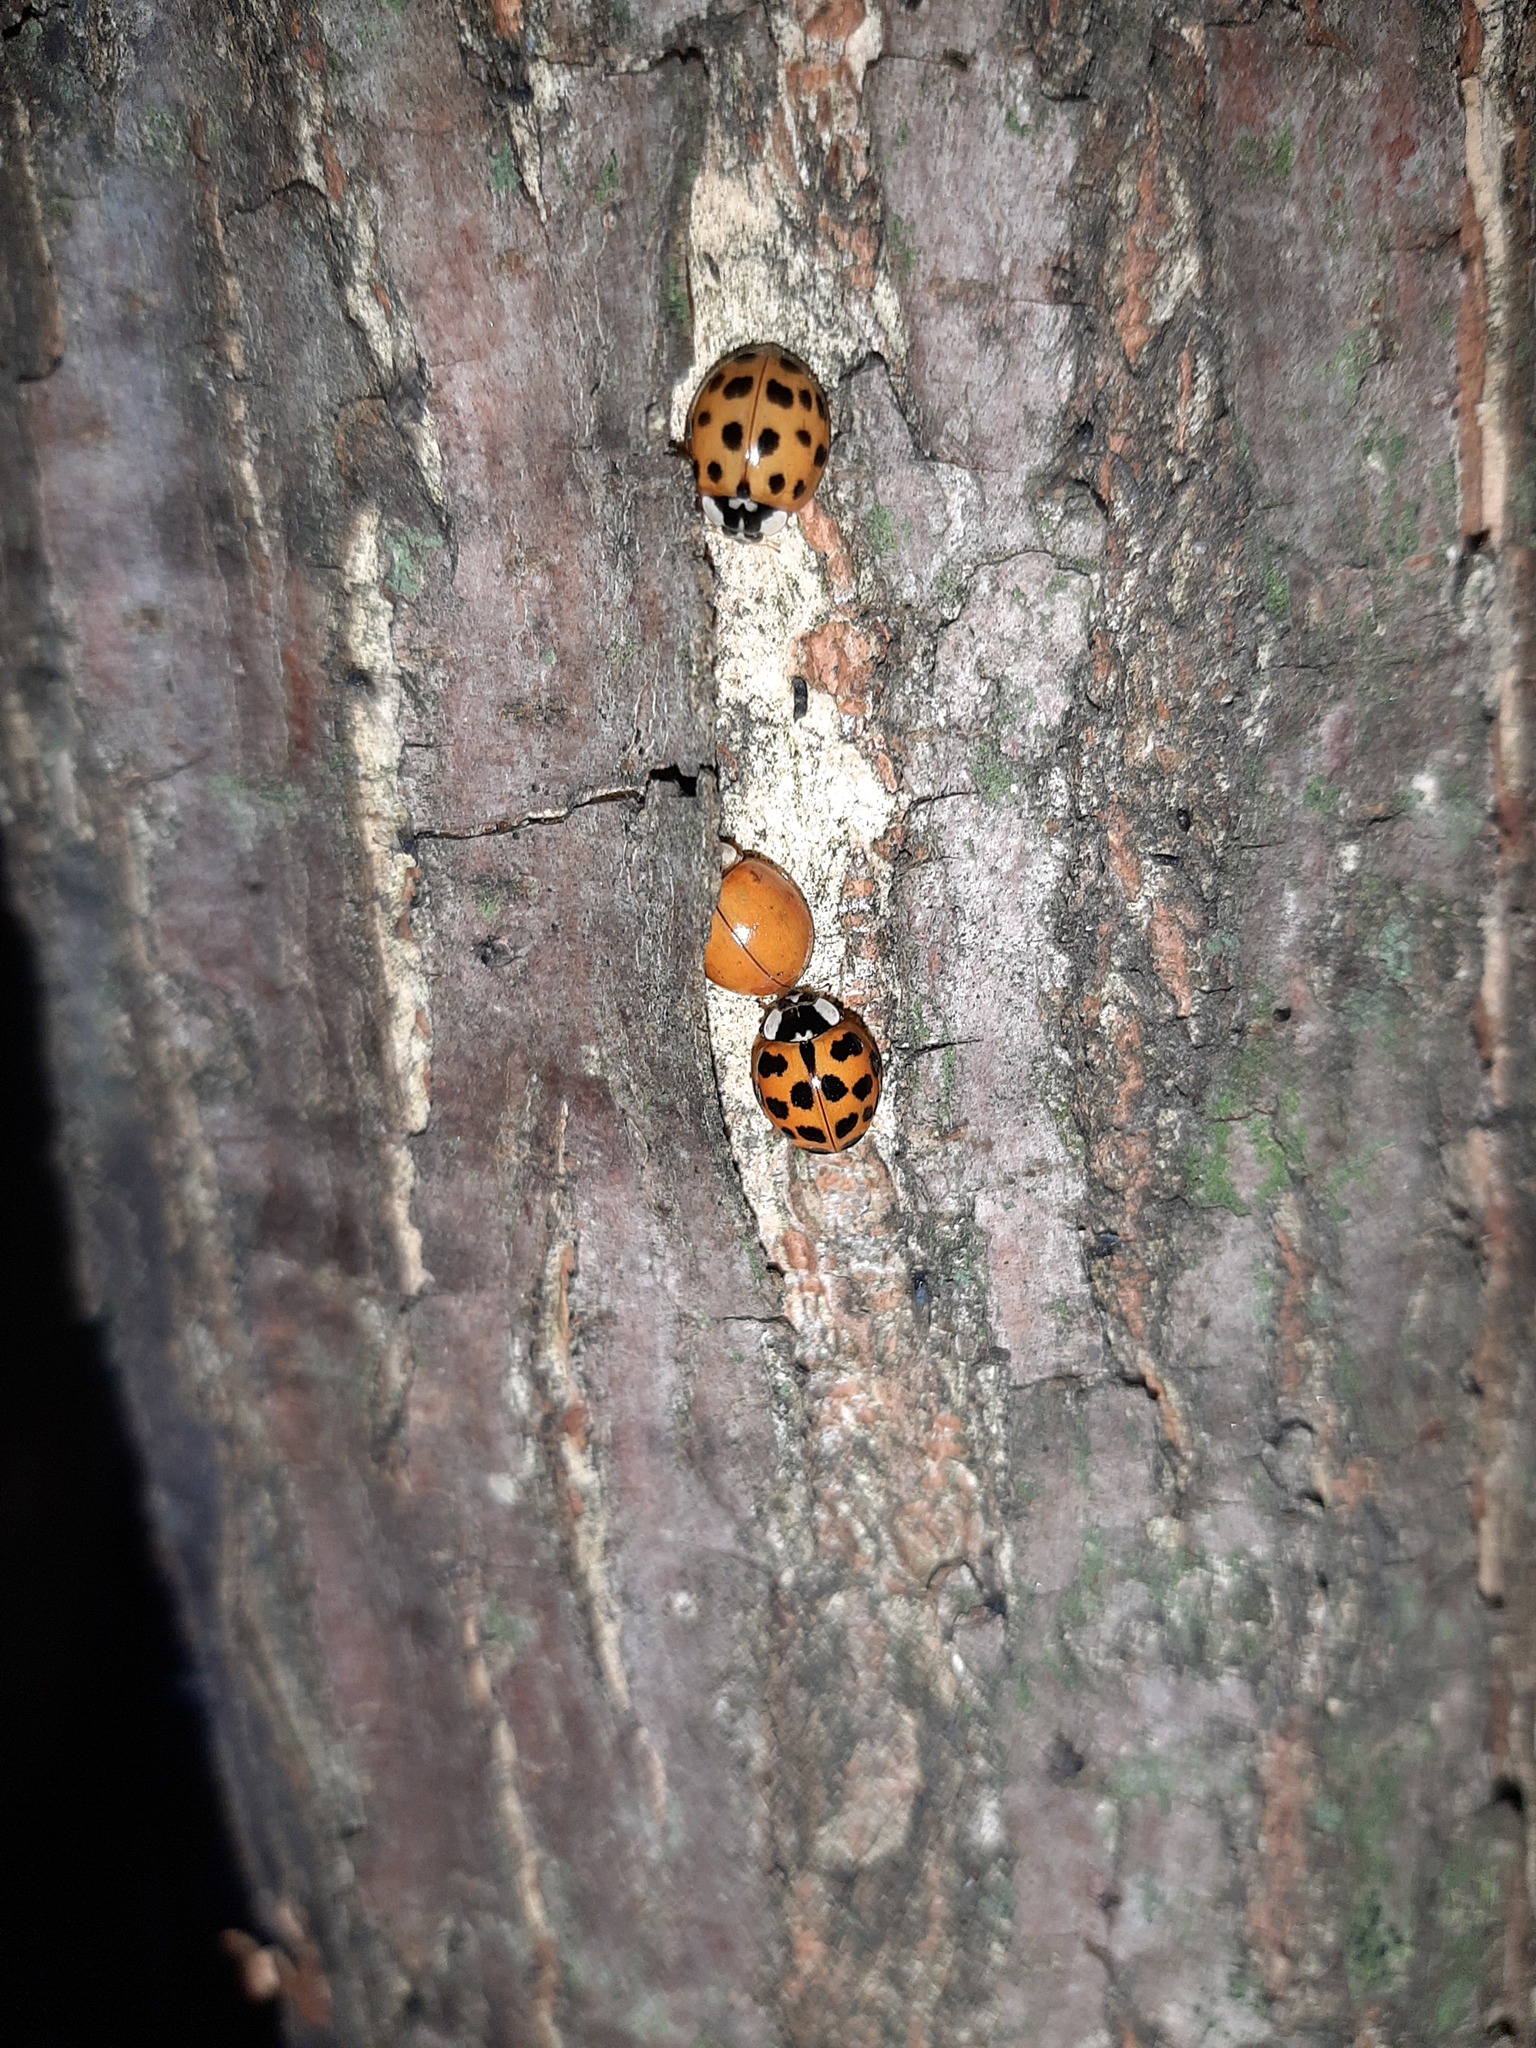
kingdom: Animalia
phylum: Arthropoda
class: Insecta
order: Coleoptera
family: Coccinellidae
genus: Harmonia
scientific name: Harmonia axyridis
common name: Harlequin ladybird
